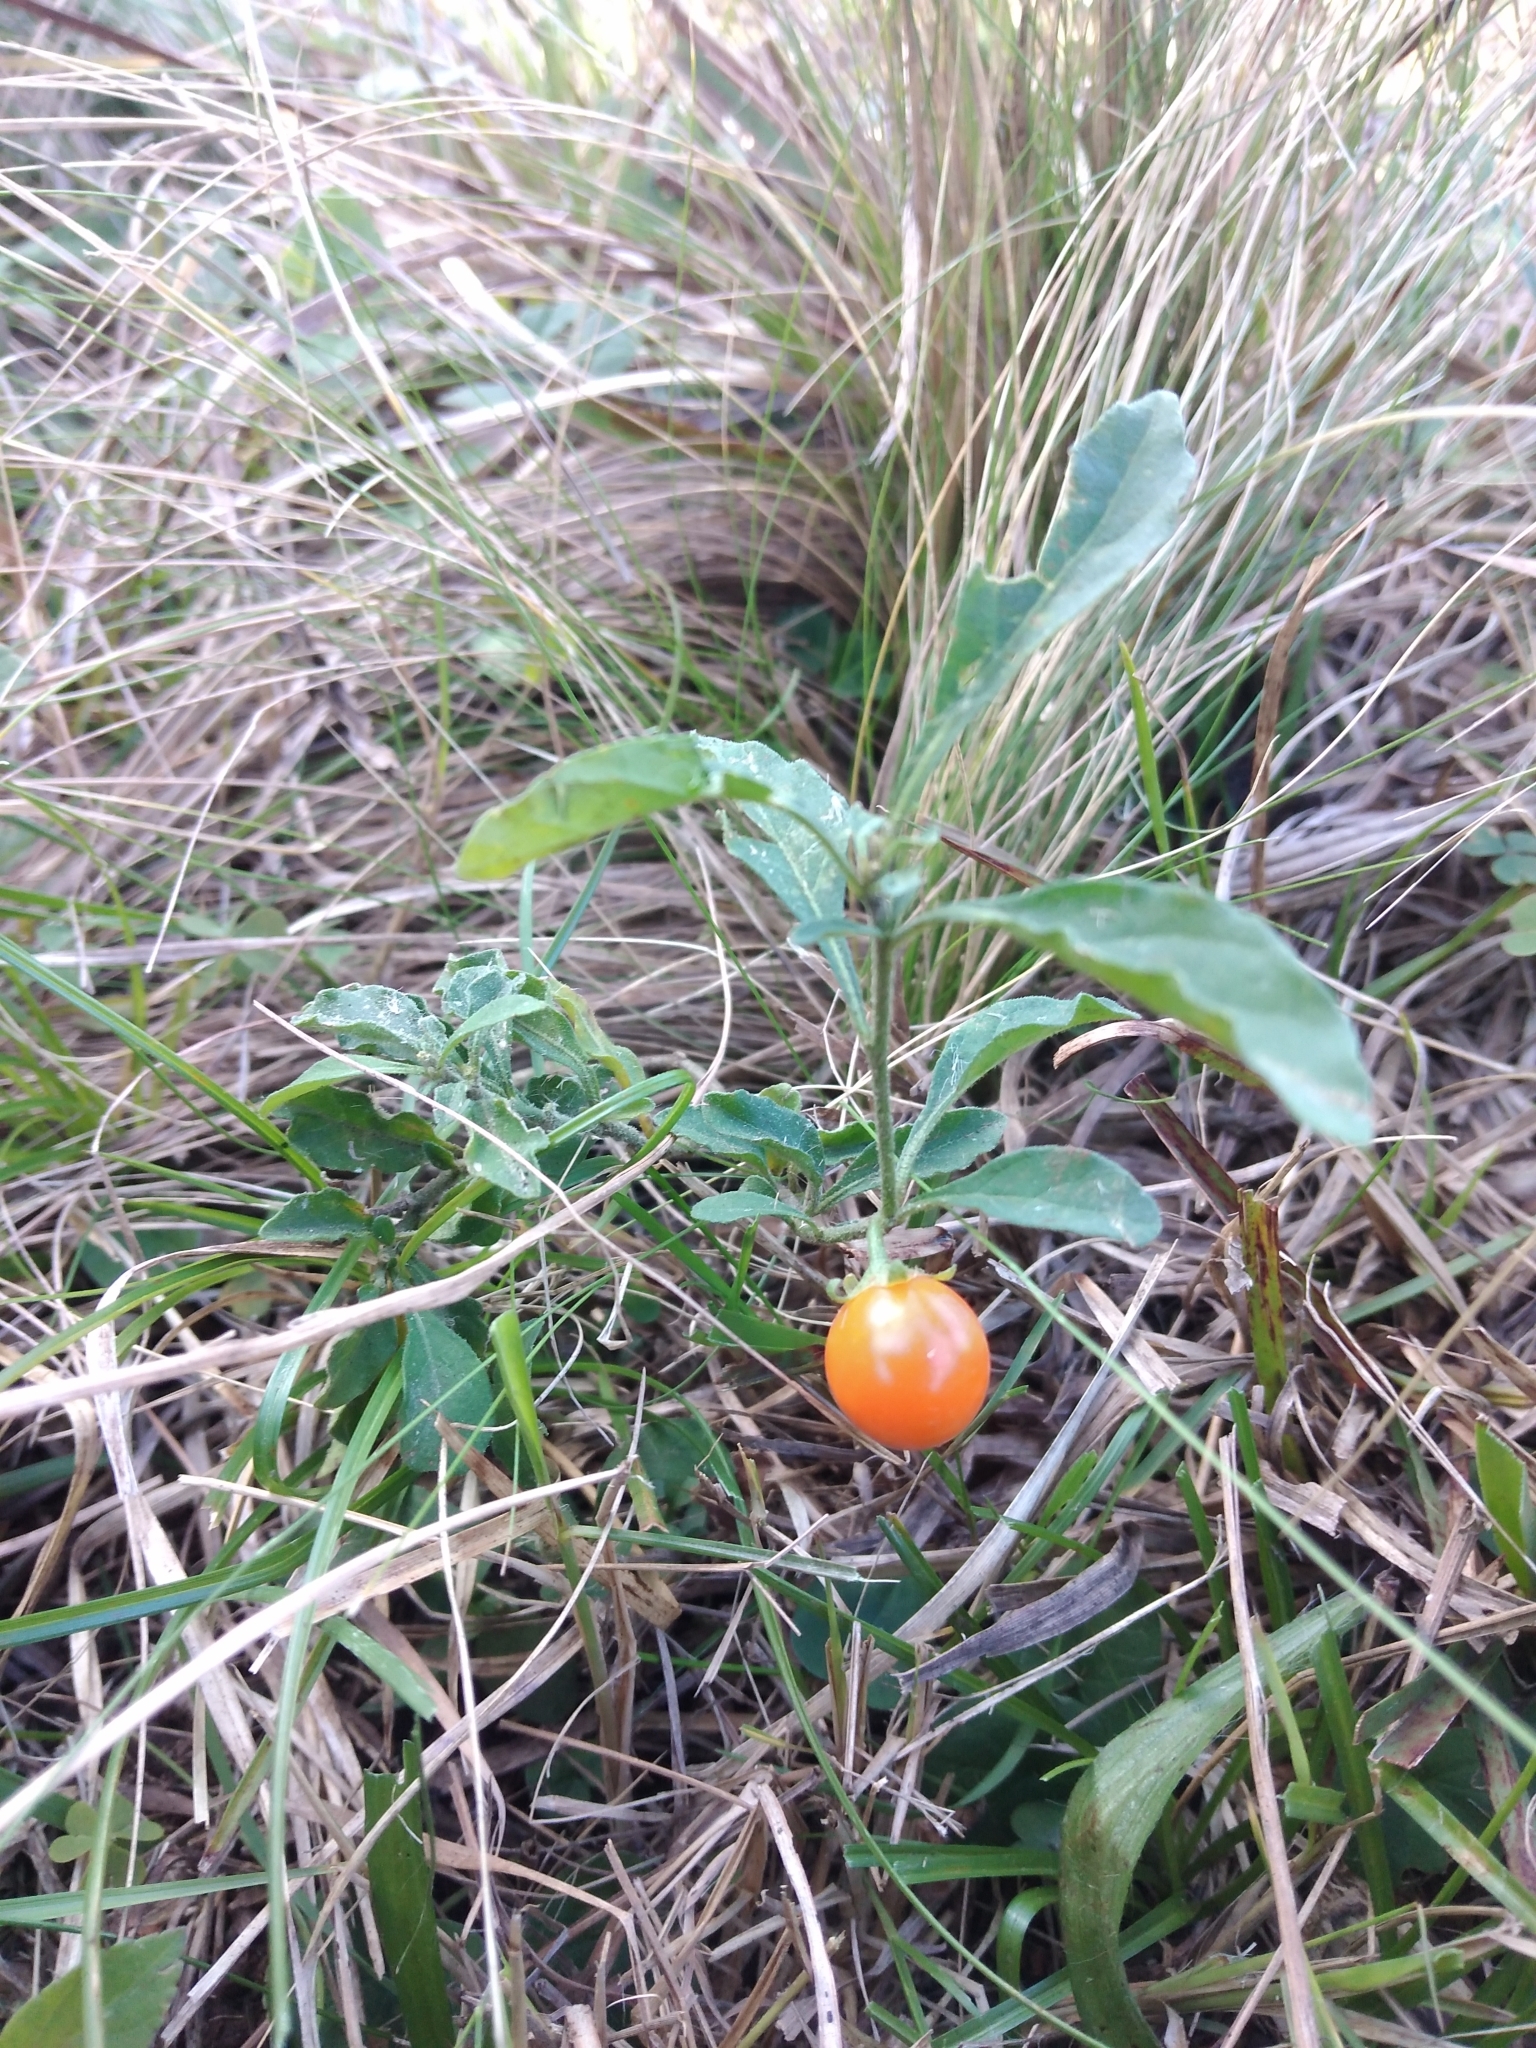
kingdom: Plantae
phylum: Tracheophyta
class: Magnoliopsida
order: Solanales
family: Solanaceae
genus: Solanum
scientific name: Solanum pseudocapsicum
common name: Jerusalem cherry
